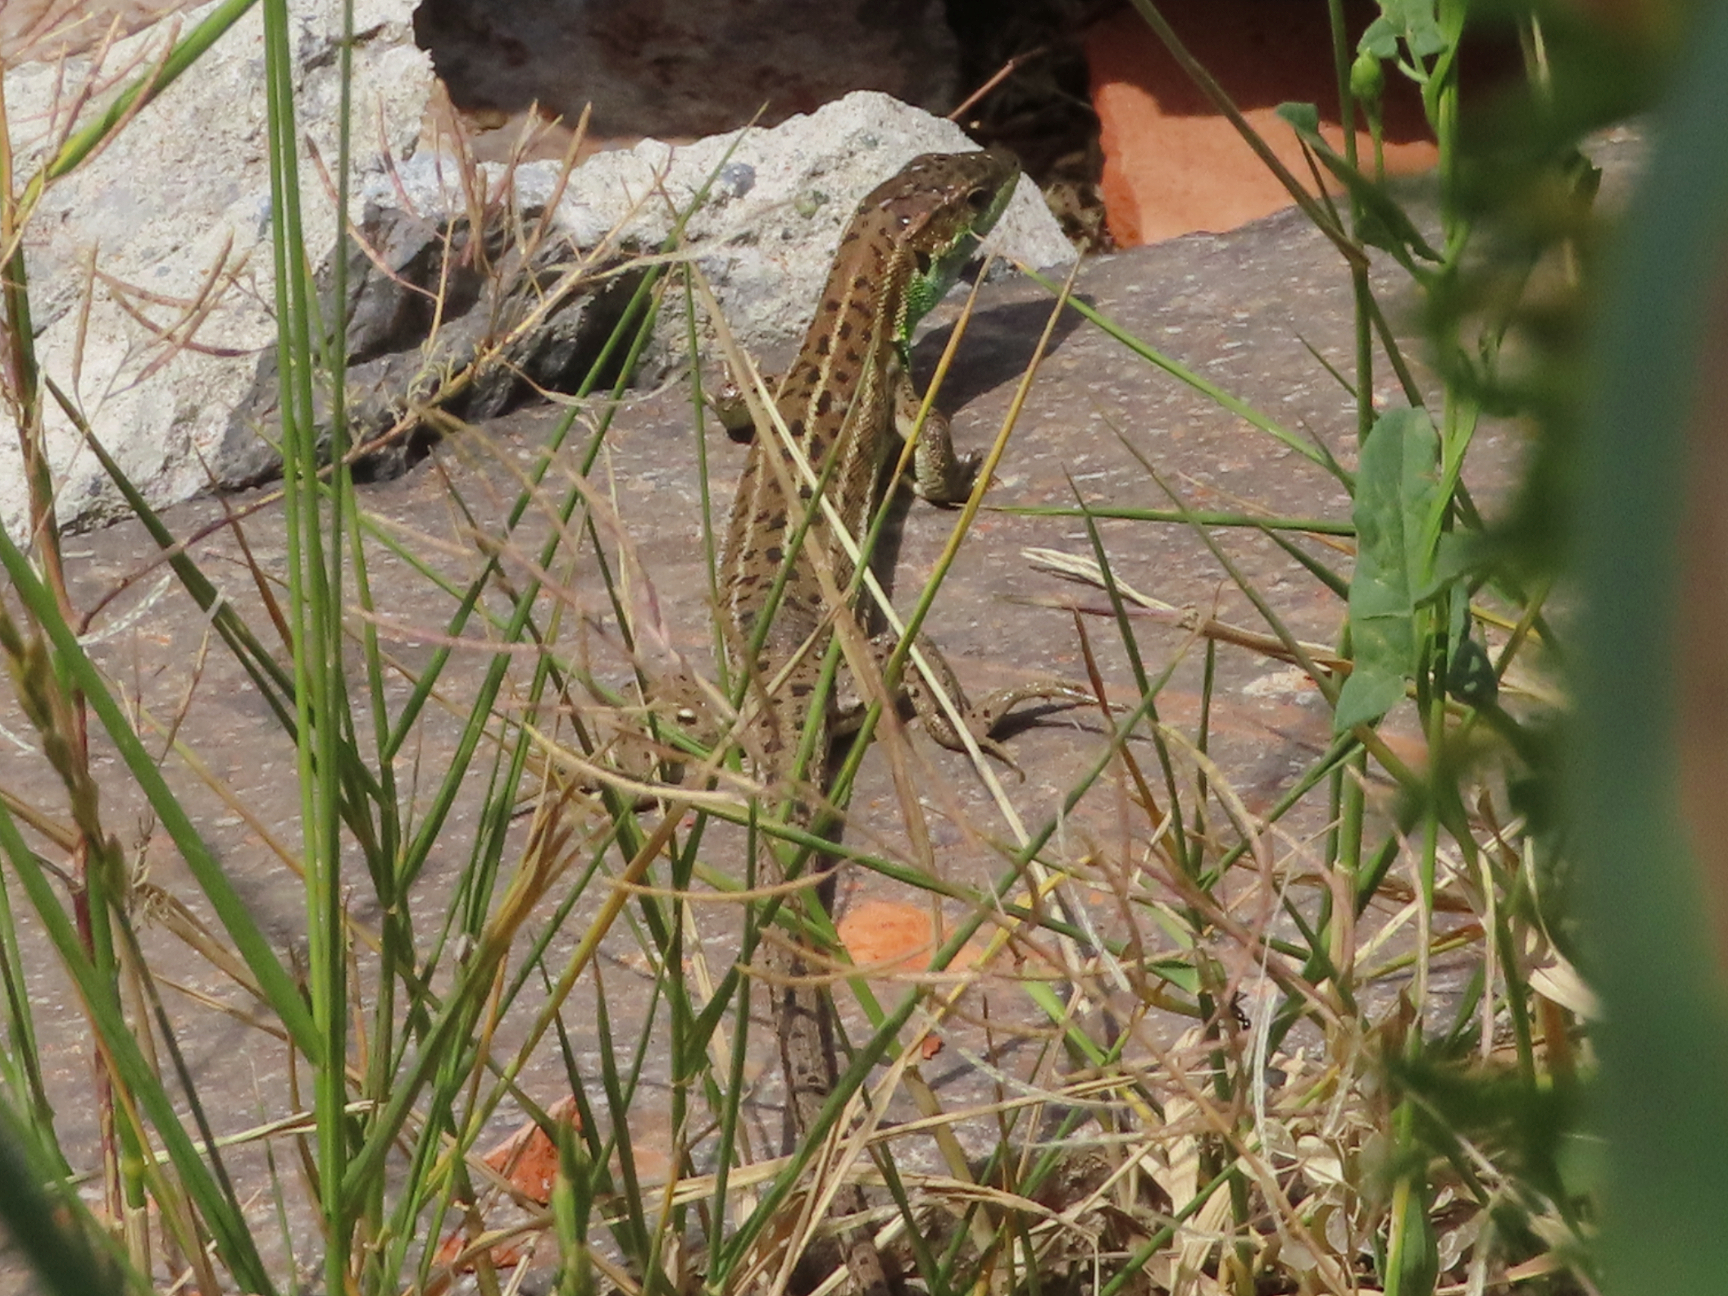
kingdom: Animalia
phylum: Chordata
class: Squamata
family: Lacertidae
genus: Lacerta
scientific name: Lacerta strigata
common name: Caspian green lizard
